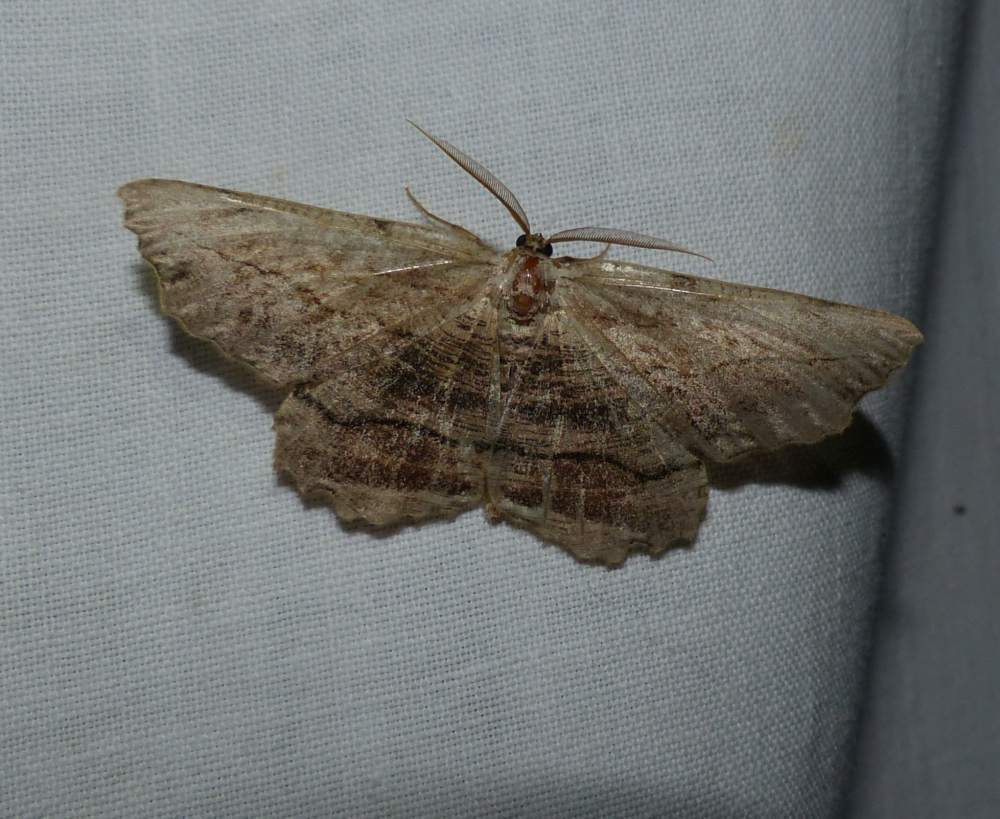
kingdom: Animalia
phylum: Arthropoda
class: Insecta
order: Lepidoptera
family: Geometridae
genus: Lytrosis
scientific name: Lytrosis unitaria
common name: Common lytrosis
